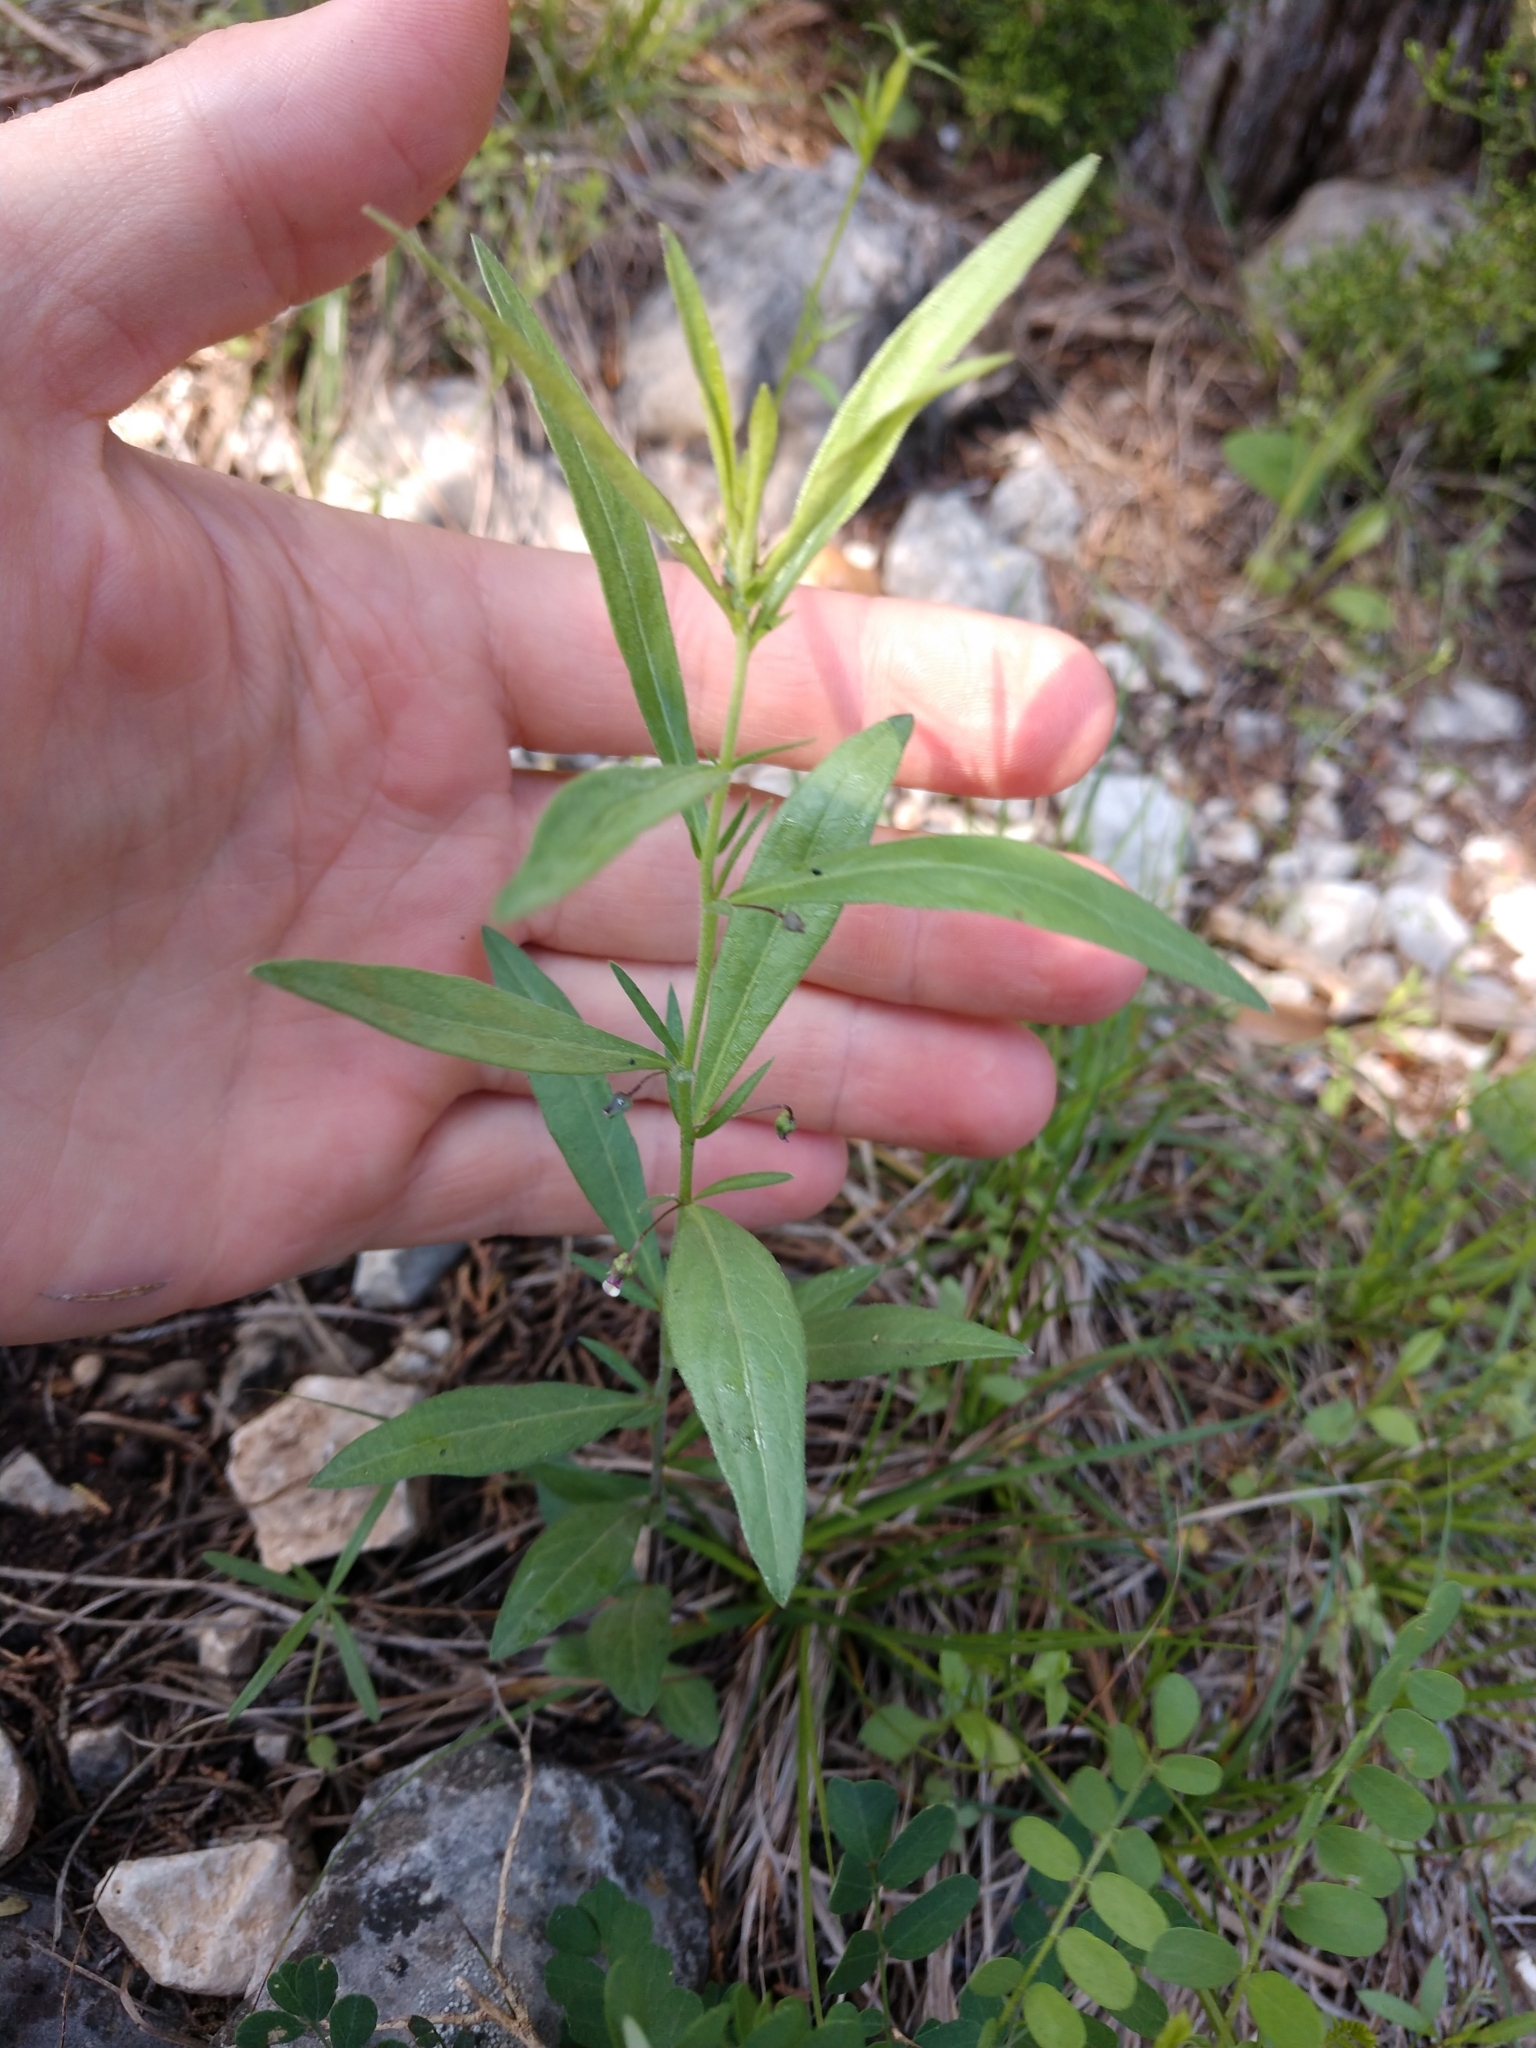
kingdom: Plantae
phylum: Tracheophyta
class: Magnoliopsida
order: Malpighiales
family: Violaceae
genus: Pombalia
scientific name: Pombalia verticillata
